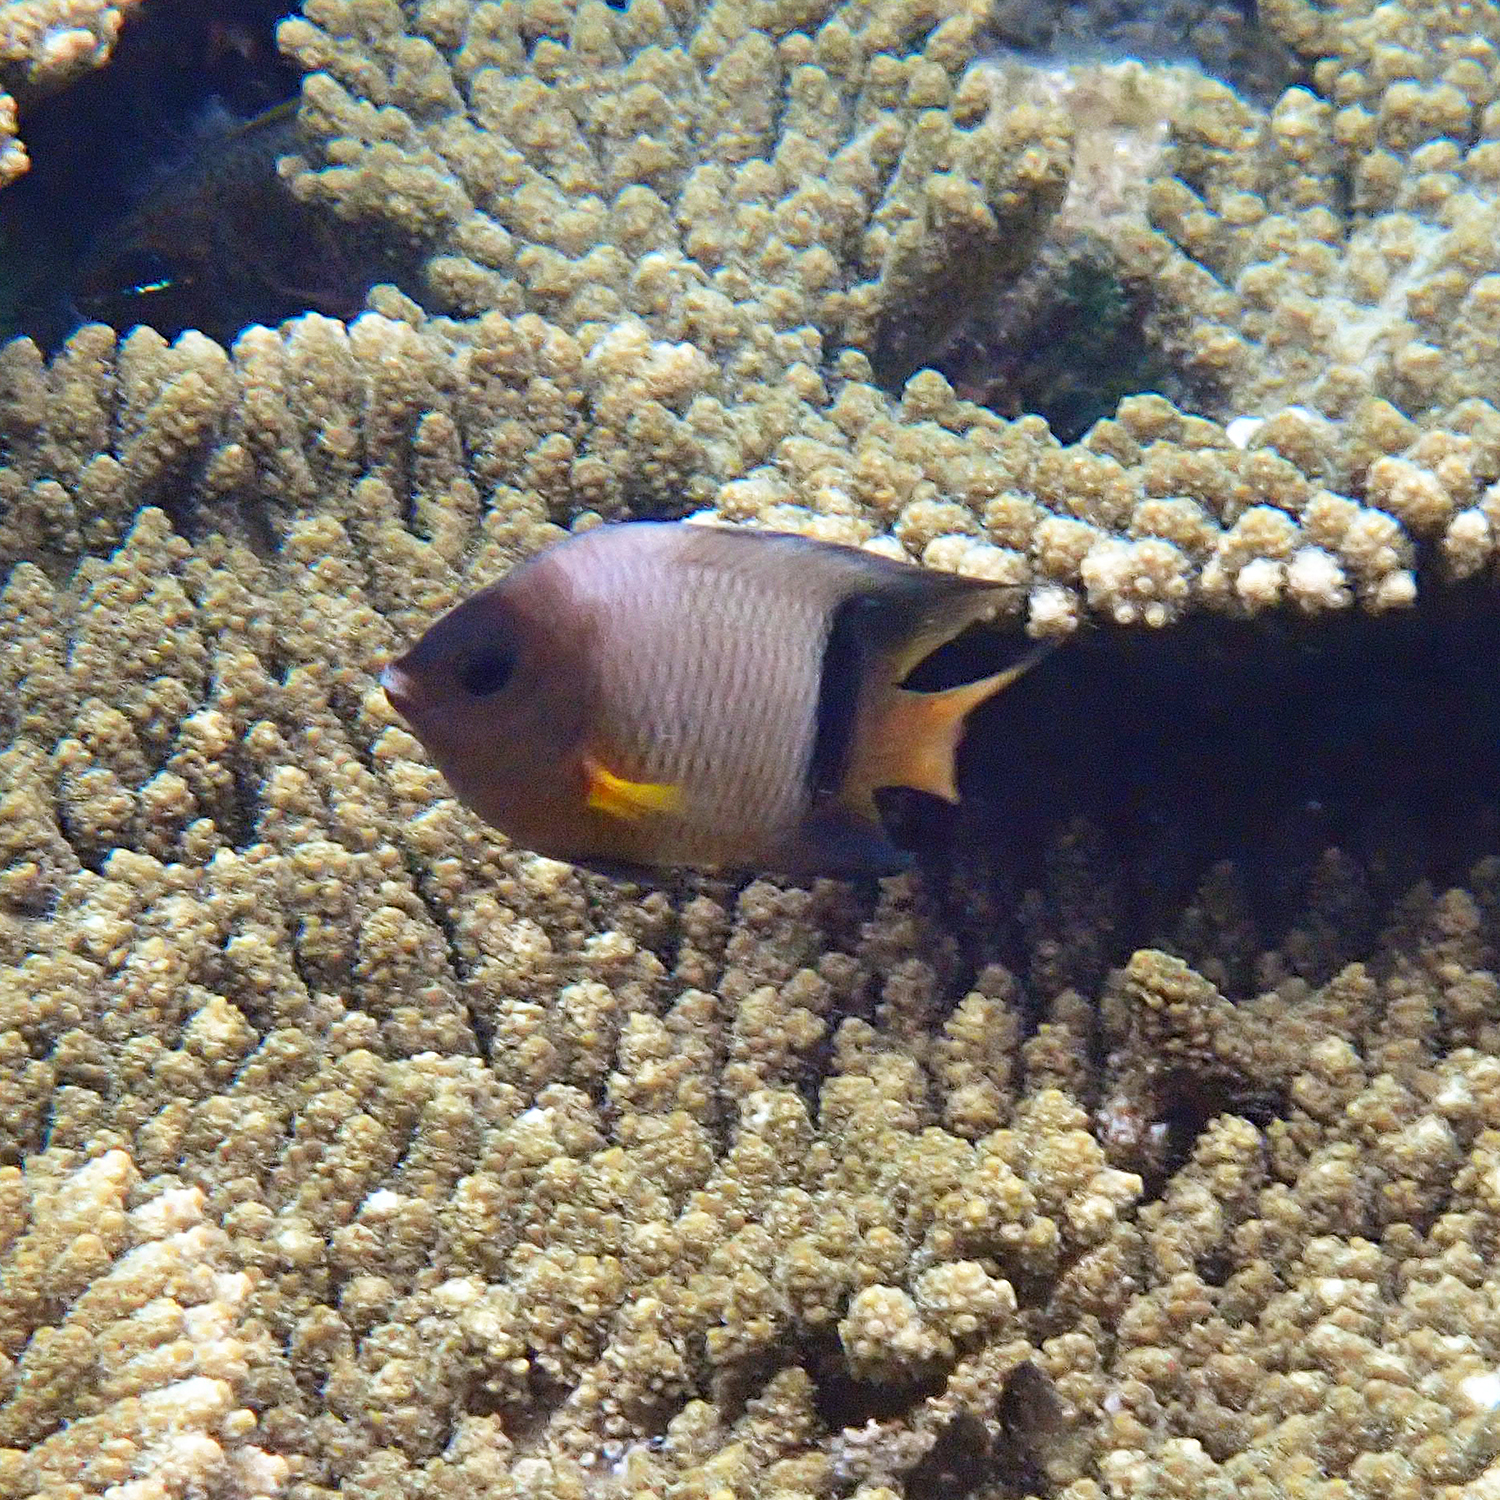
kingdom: Animalia
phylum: Chordata
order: Perciformes
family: Pomacentridae
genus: Plectroglyphidodon
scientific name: Plectroglyphidodon dickii
